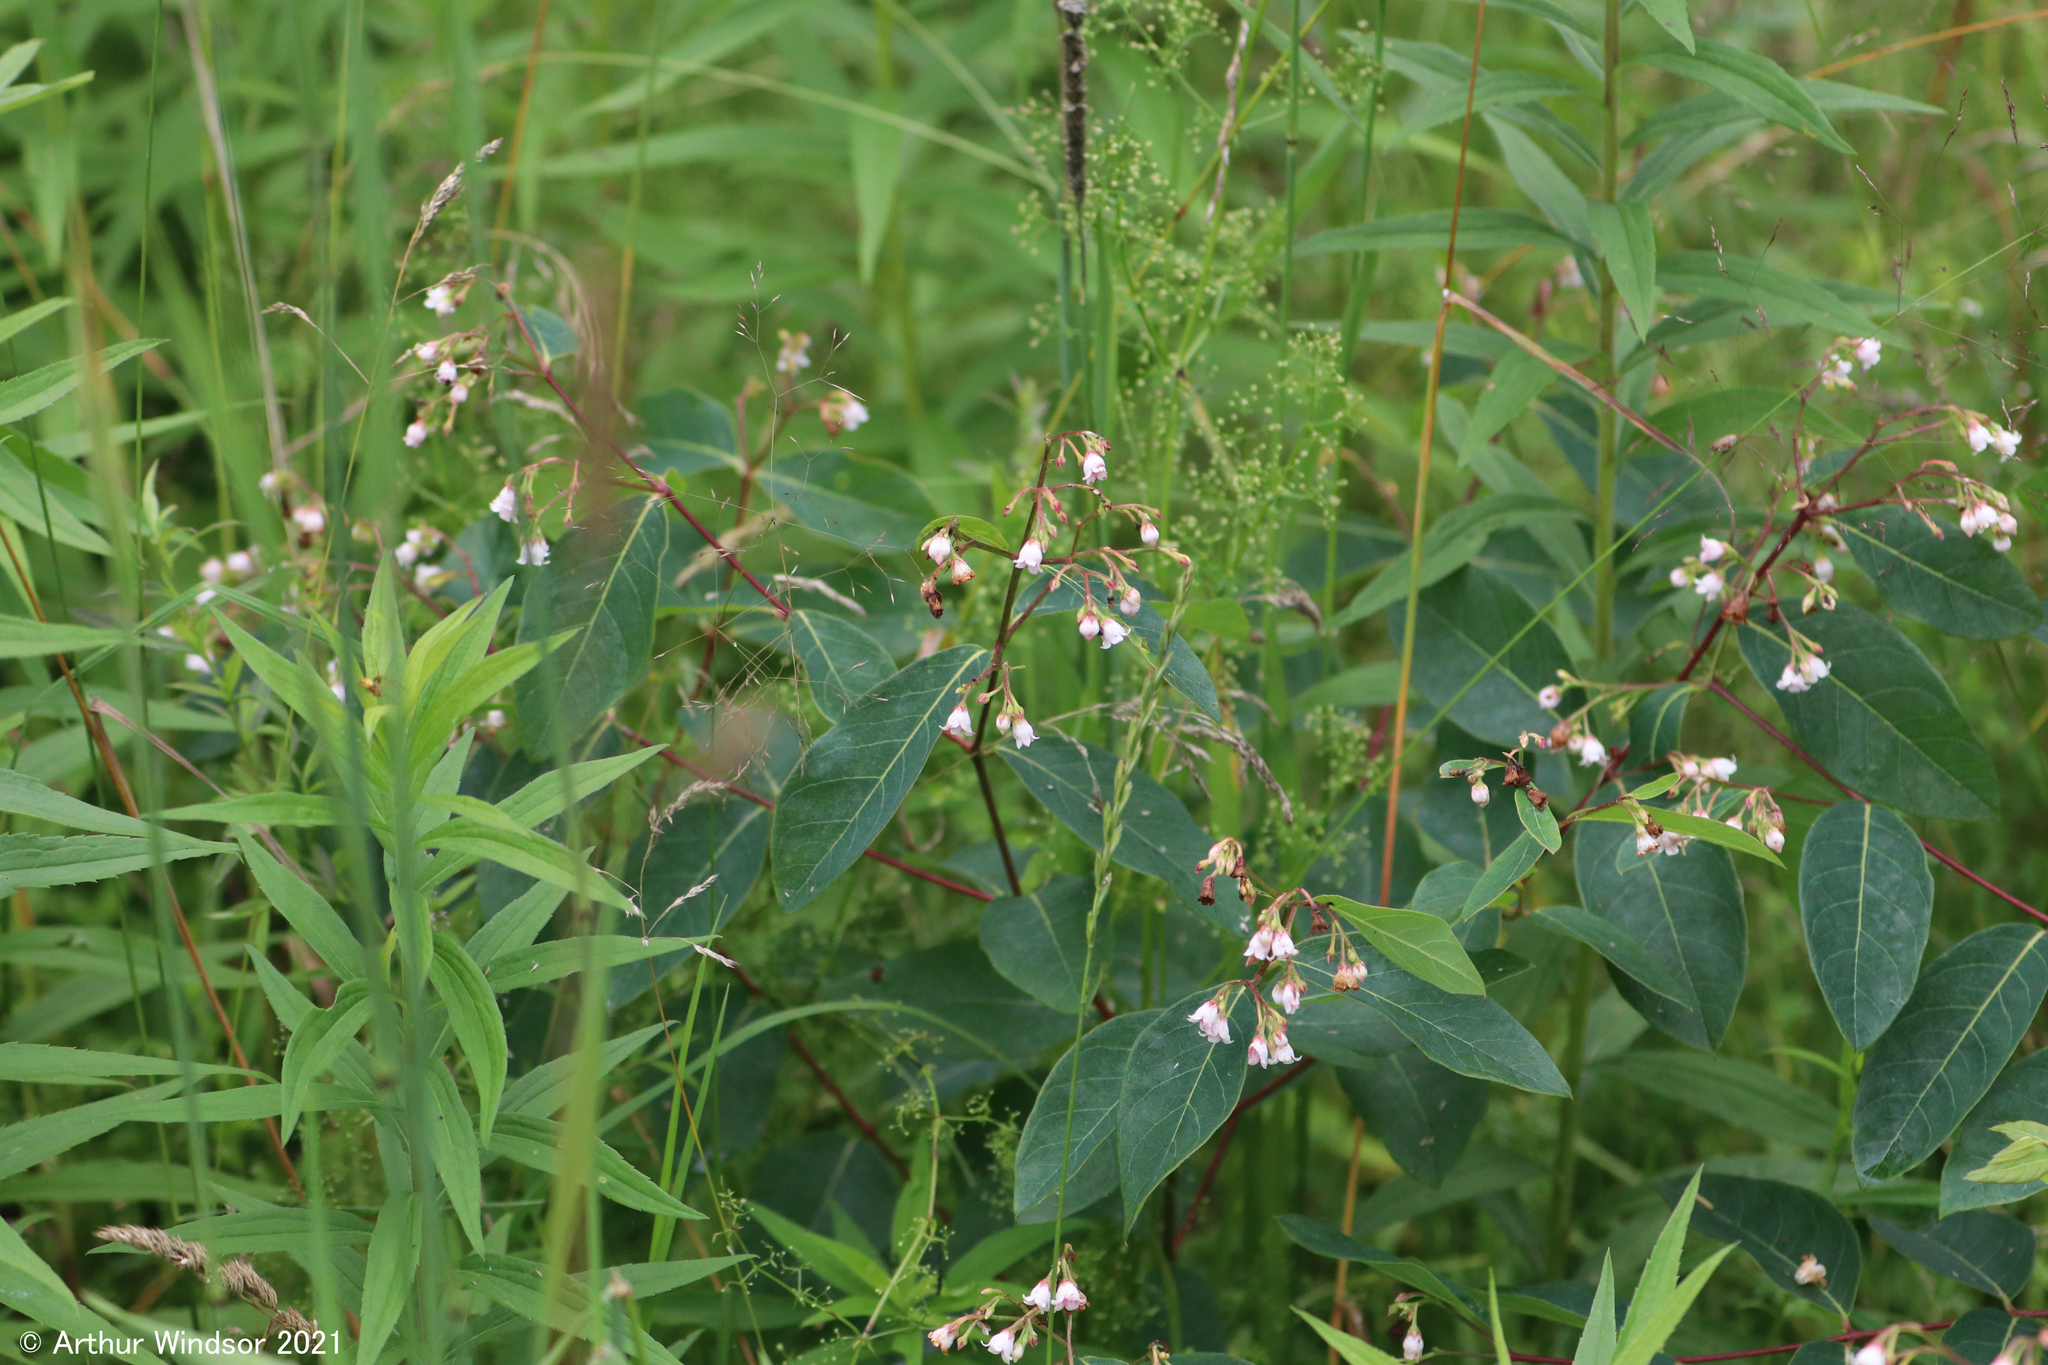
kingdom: Plantae
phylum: Tracheophyta
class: Magnoliopsida
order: Gentianales
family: Apocynaceae
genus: Apocynum
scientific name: Apocynum androsaemifolium
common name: Spreading dogbane
